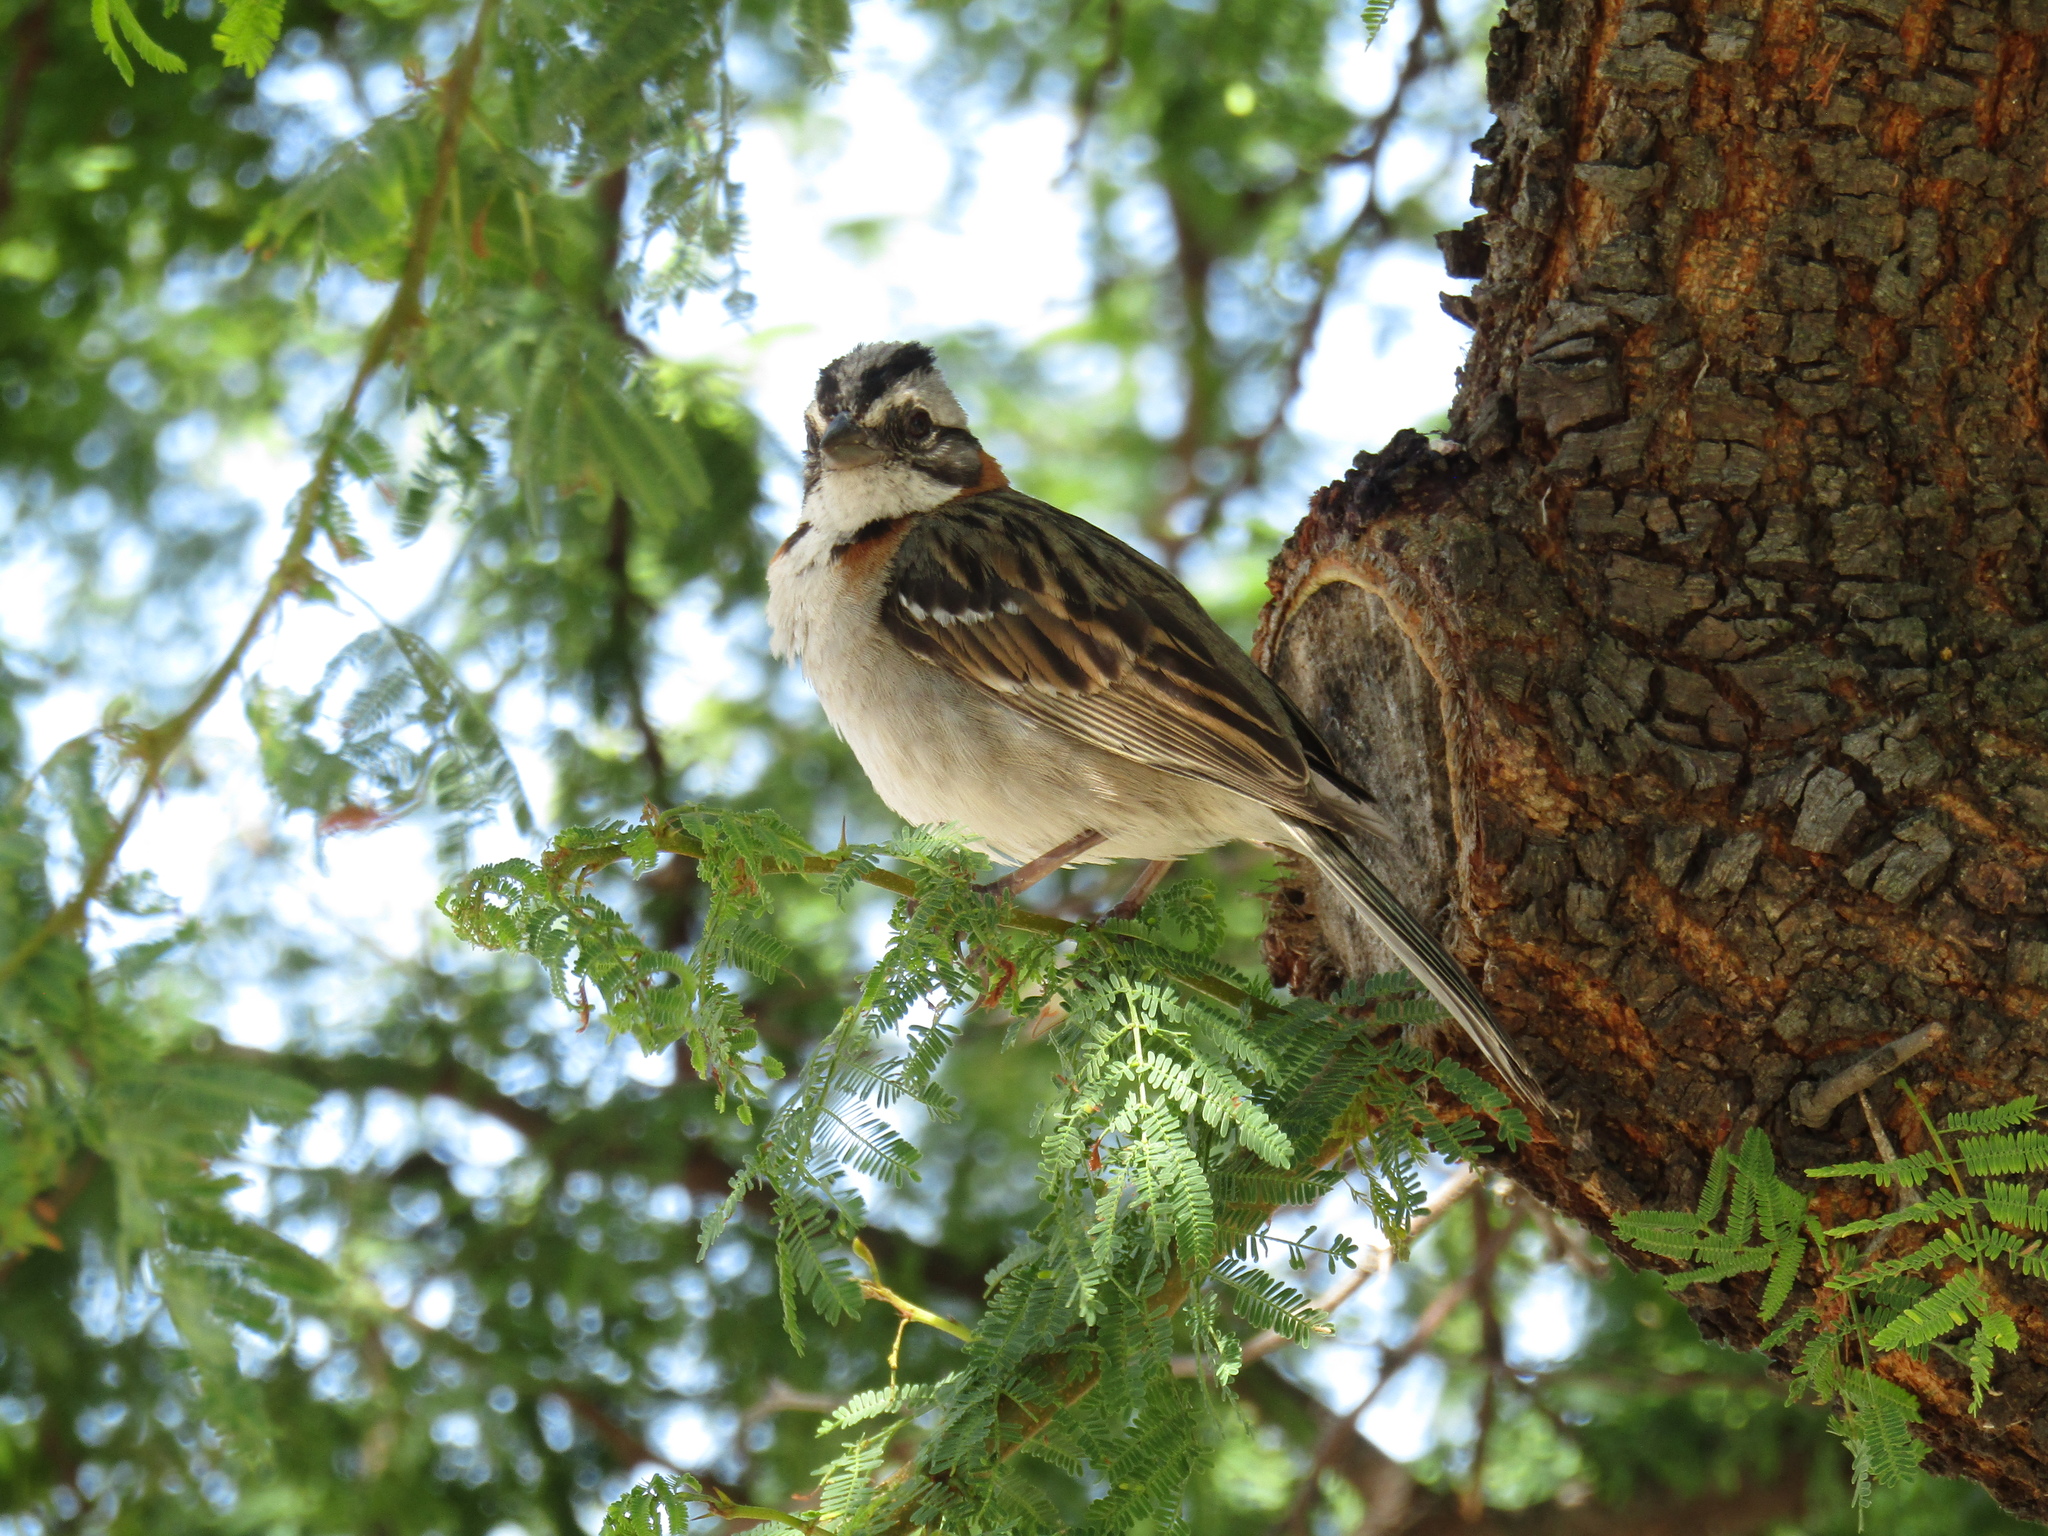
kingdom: Animalia
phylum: Chordata
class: Aves
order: Passeriformes
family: Passerellidae
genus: Zonotrichia
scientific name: Zonotrichia capensis
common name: Rufous-collared sparrow
